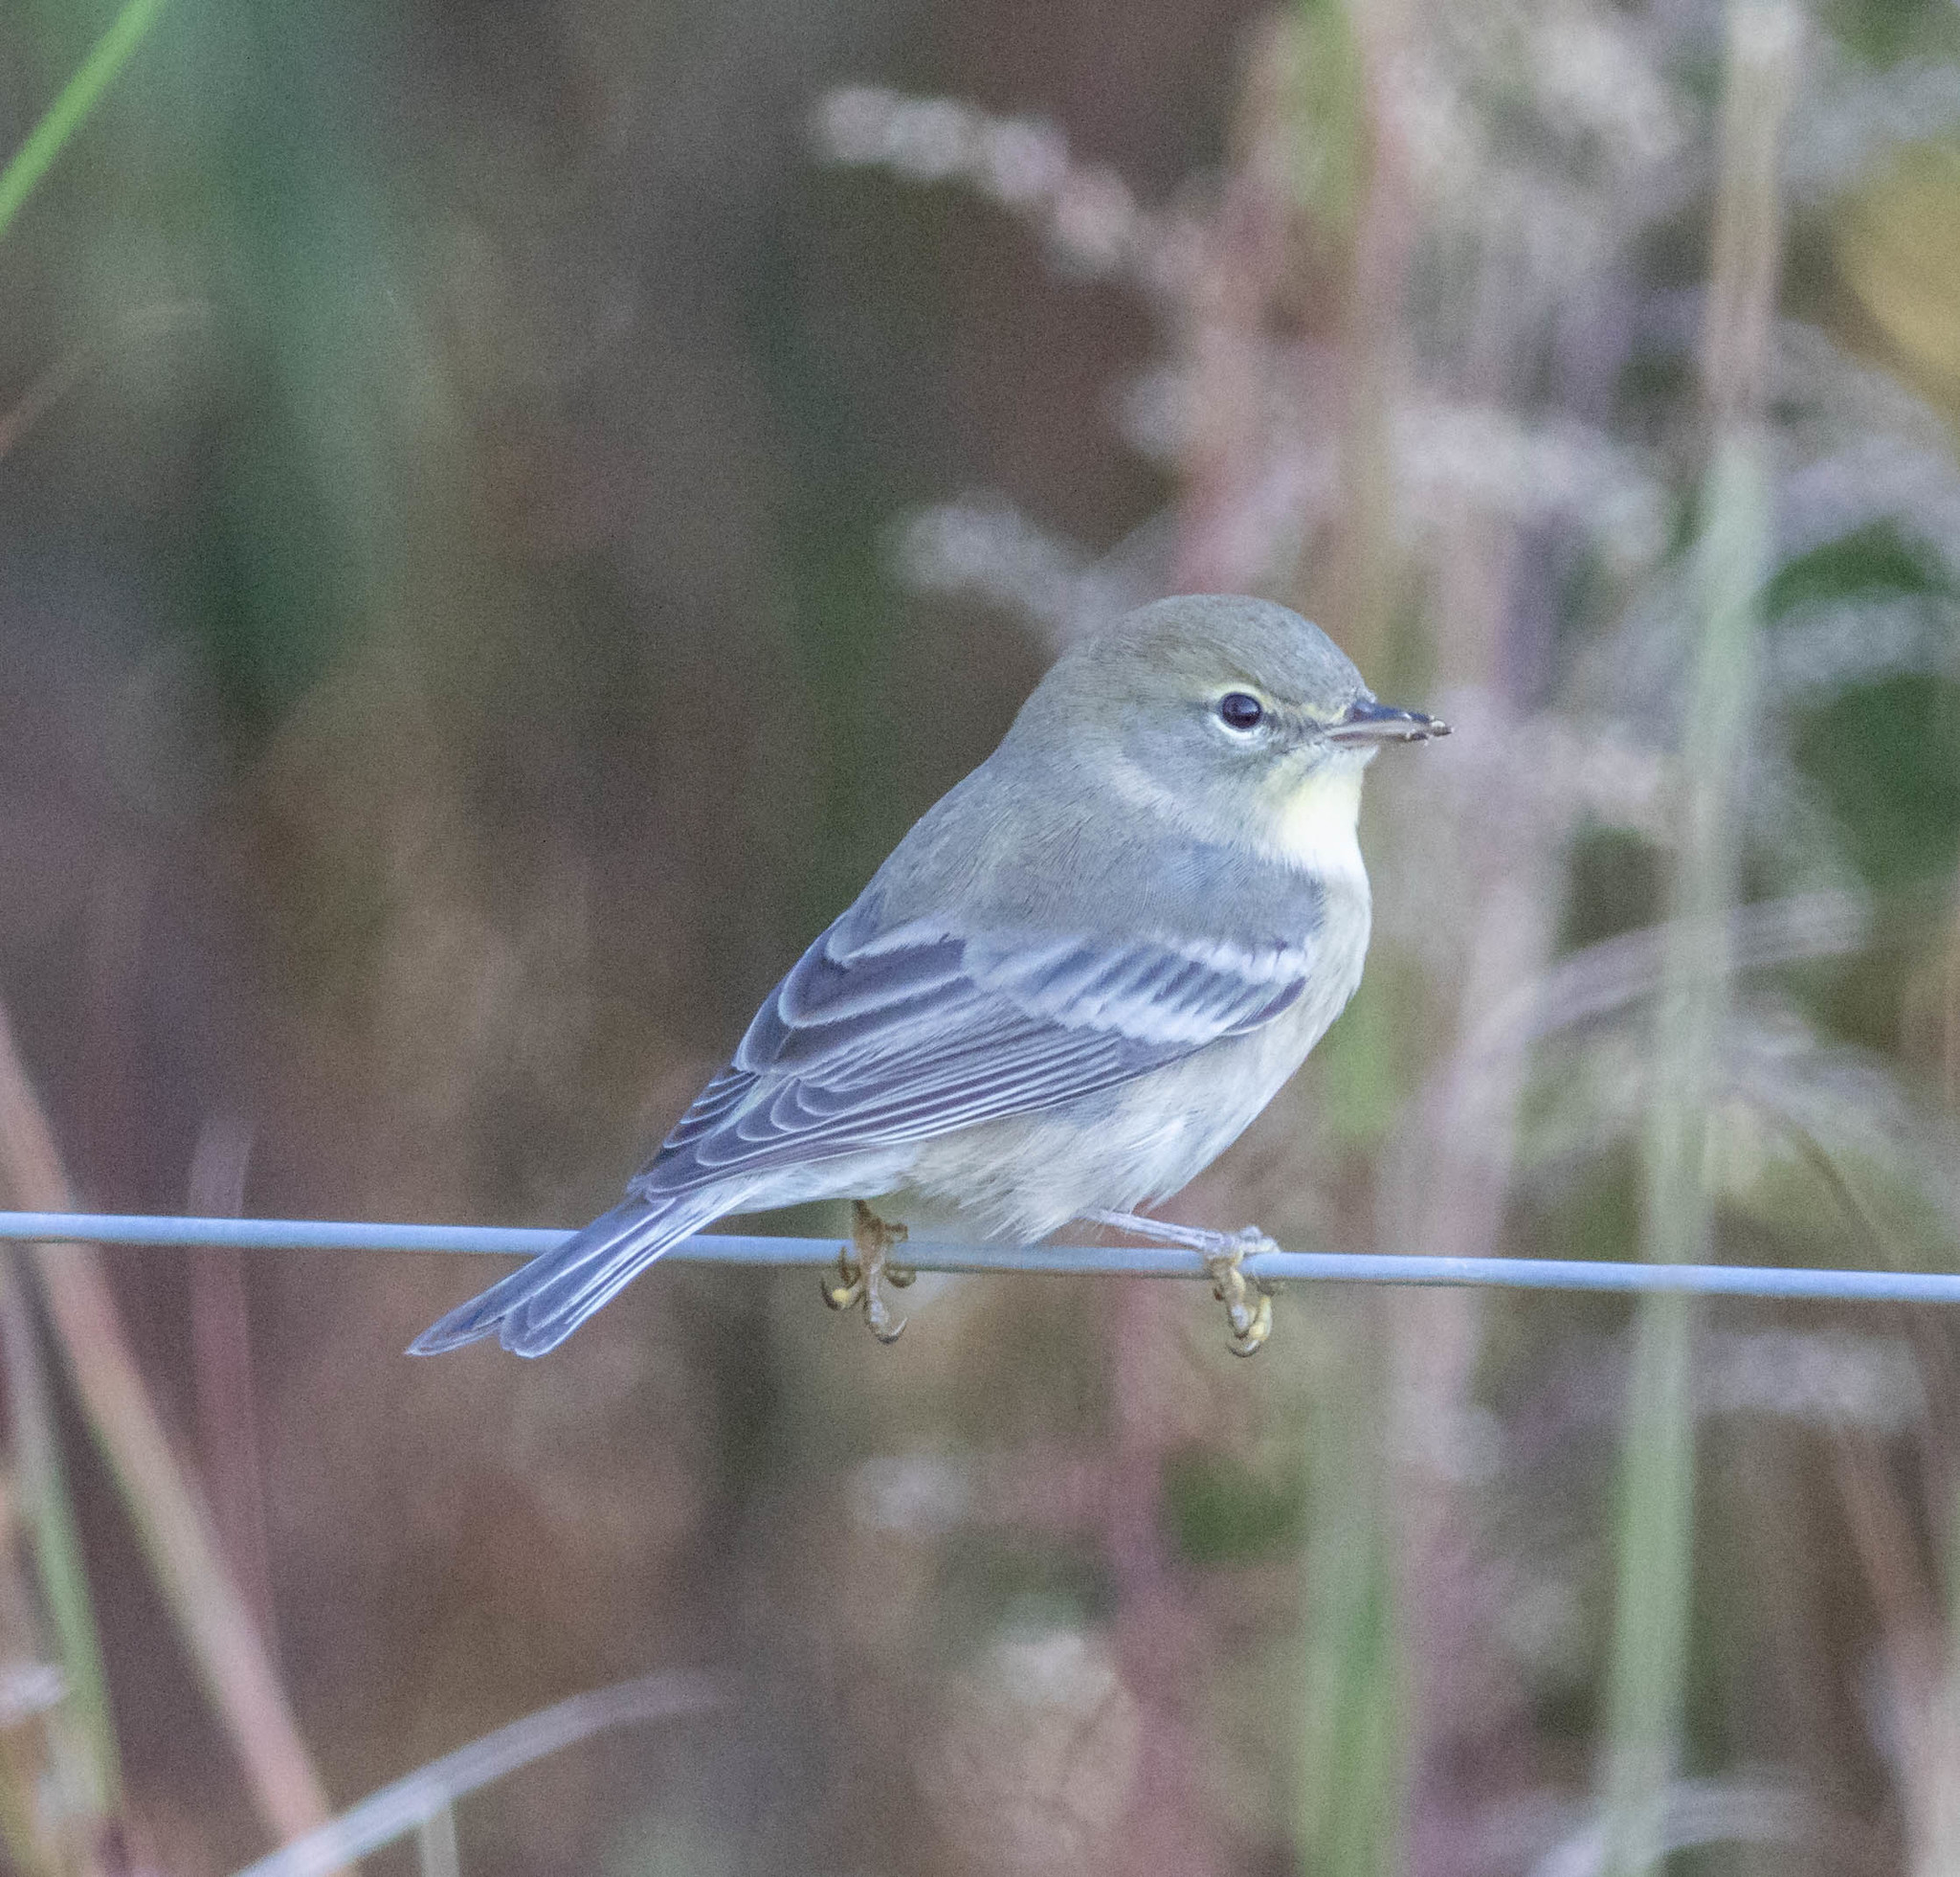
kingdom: Animalia
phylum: Chordata
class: Aves
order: Passeriformes
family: Parulidae
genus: Setophaga
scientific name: Setophaga pinus
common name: Pine warbler
